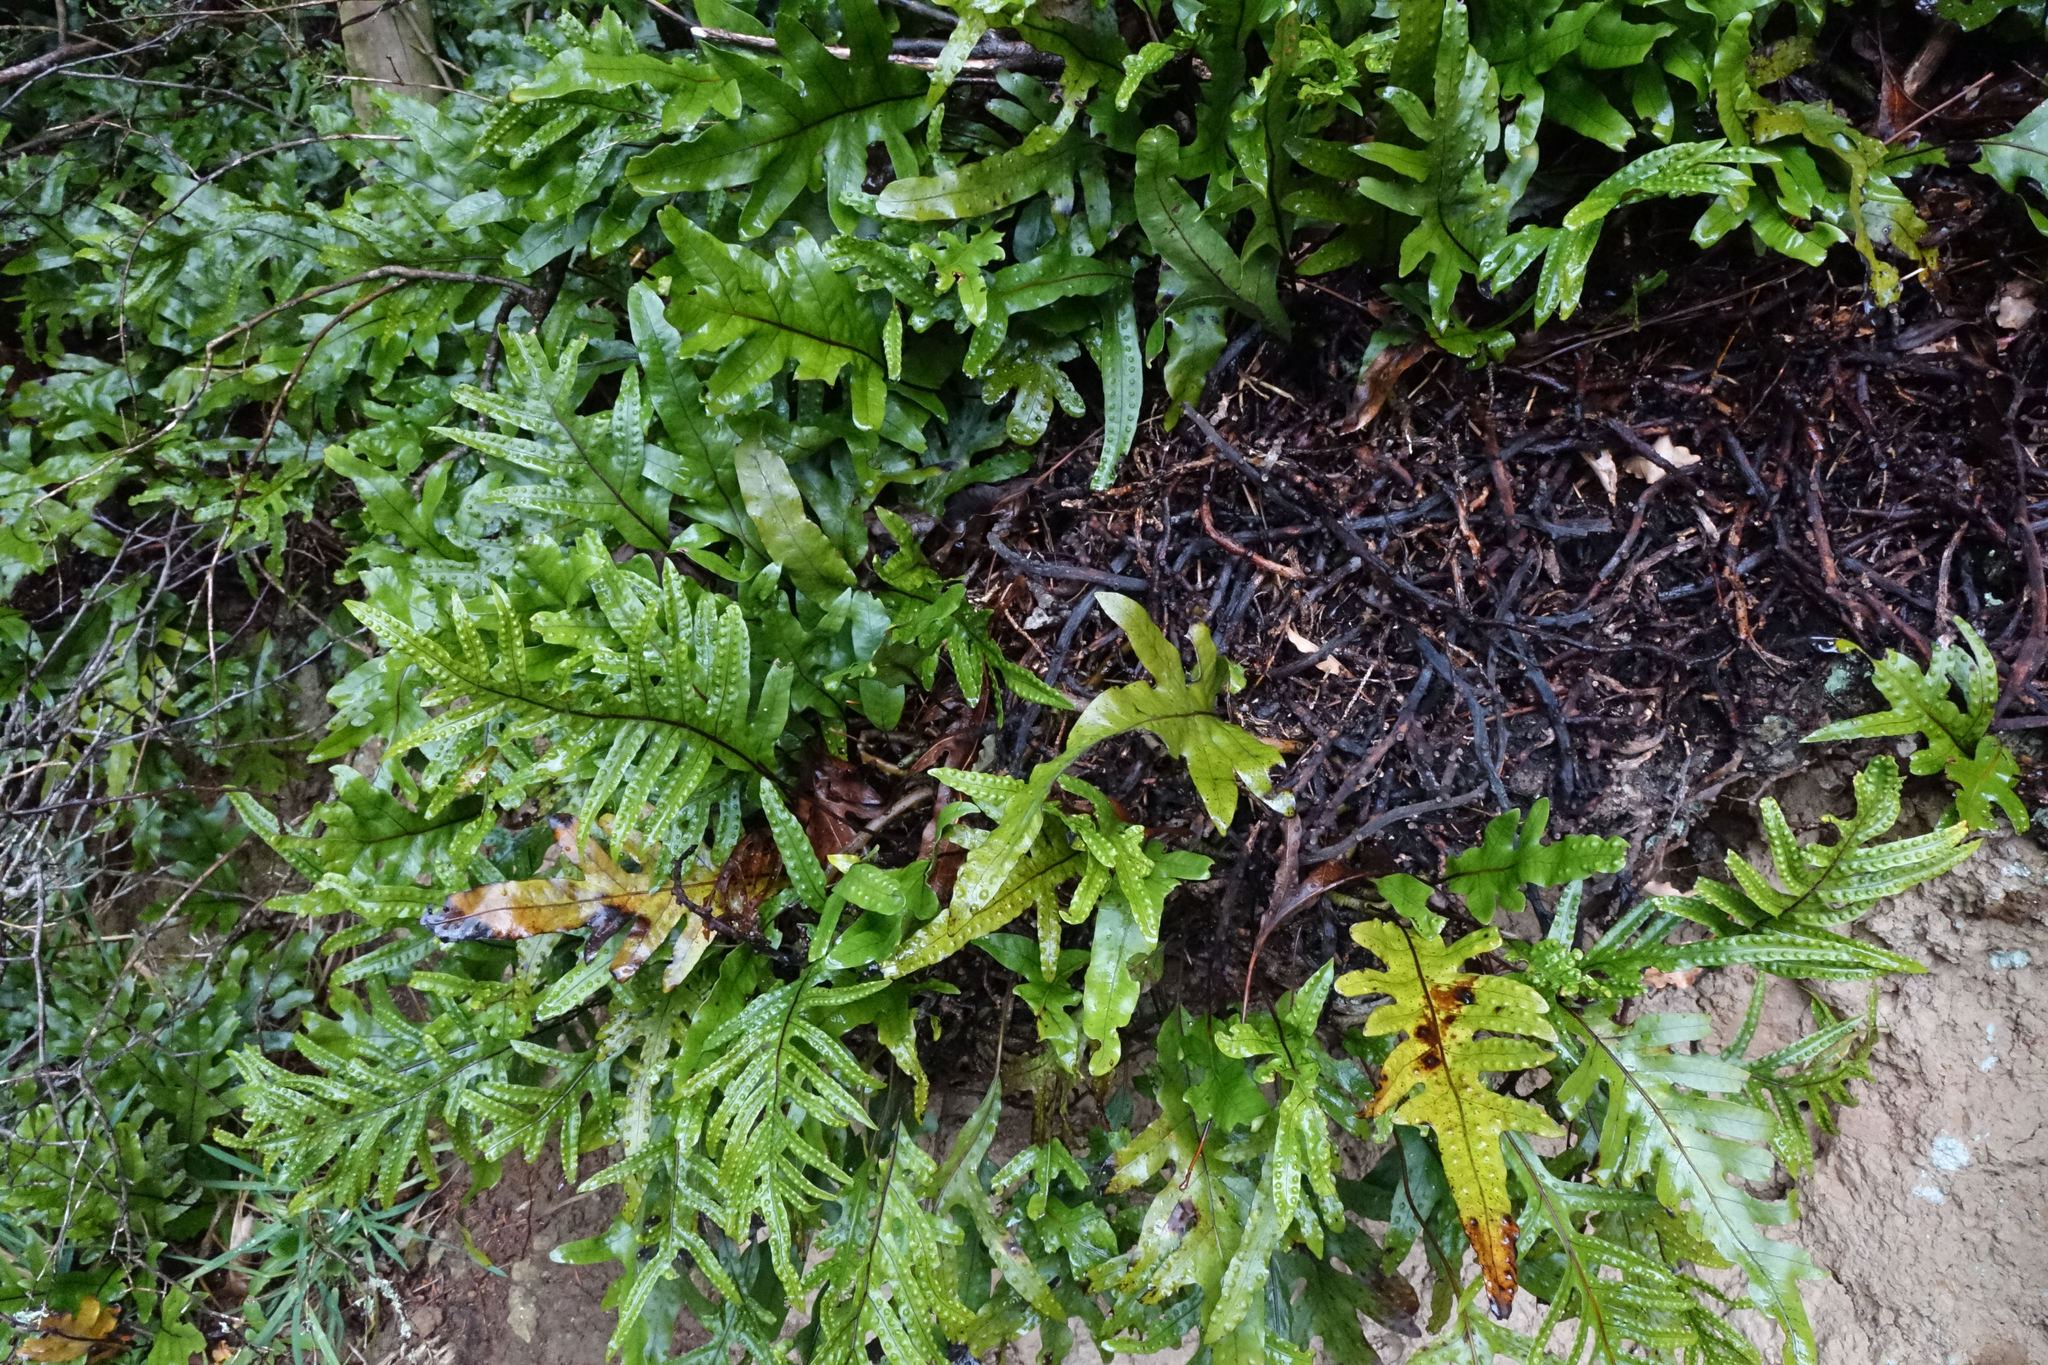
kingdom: Plantae
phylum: Tracheophyta
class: Polypodiopsida
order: Polypodiales
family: Polypodiaceae
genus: Lecanopteris
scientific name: Lecanopteris pustulata
